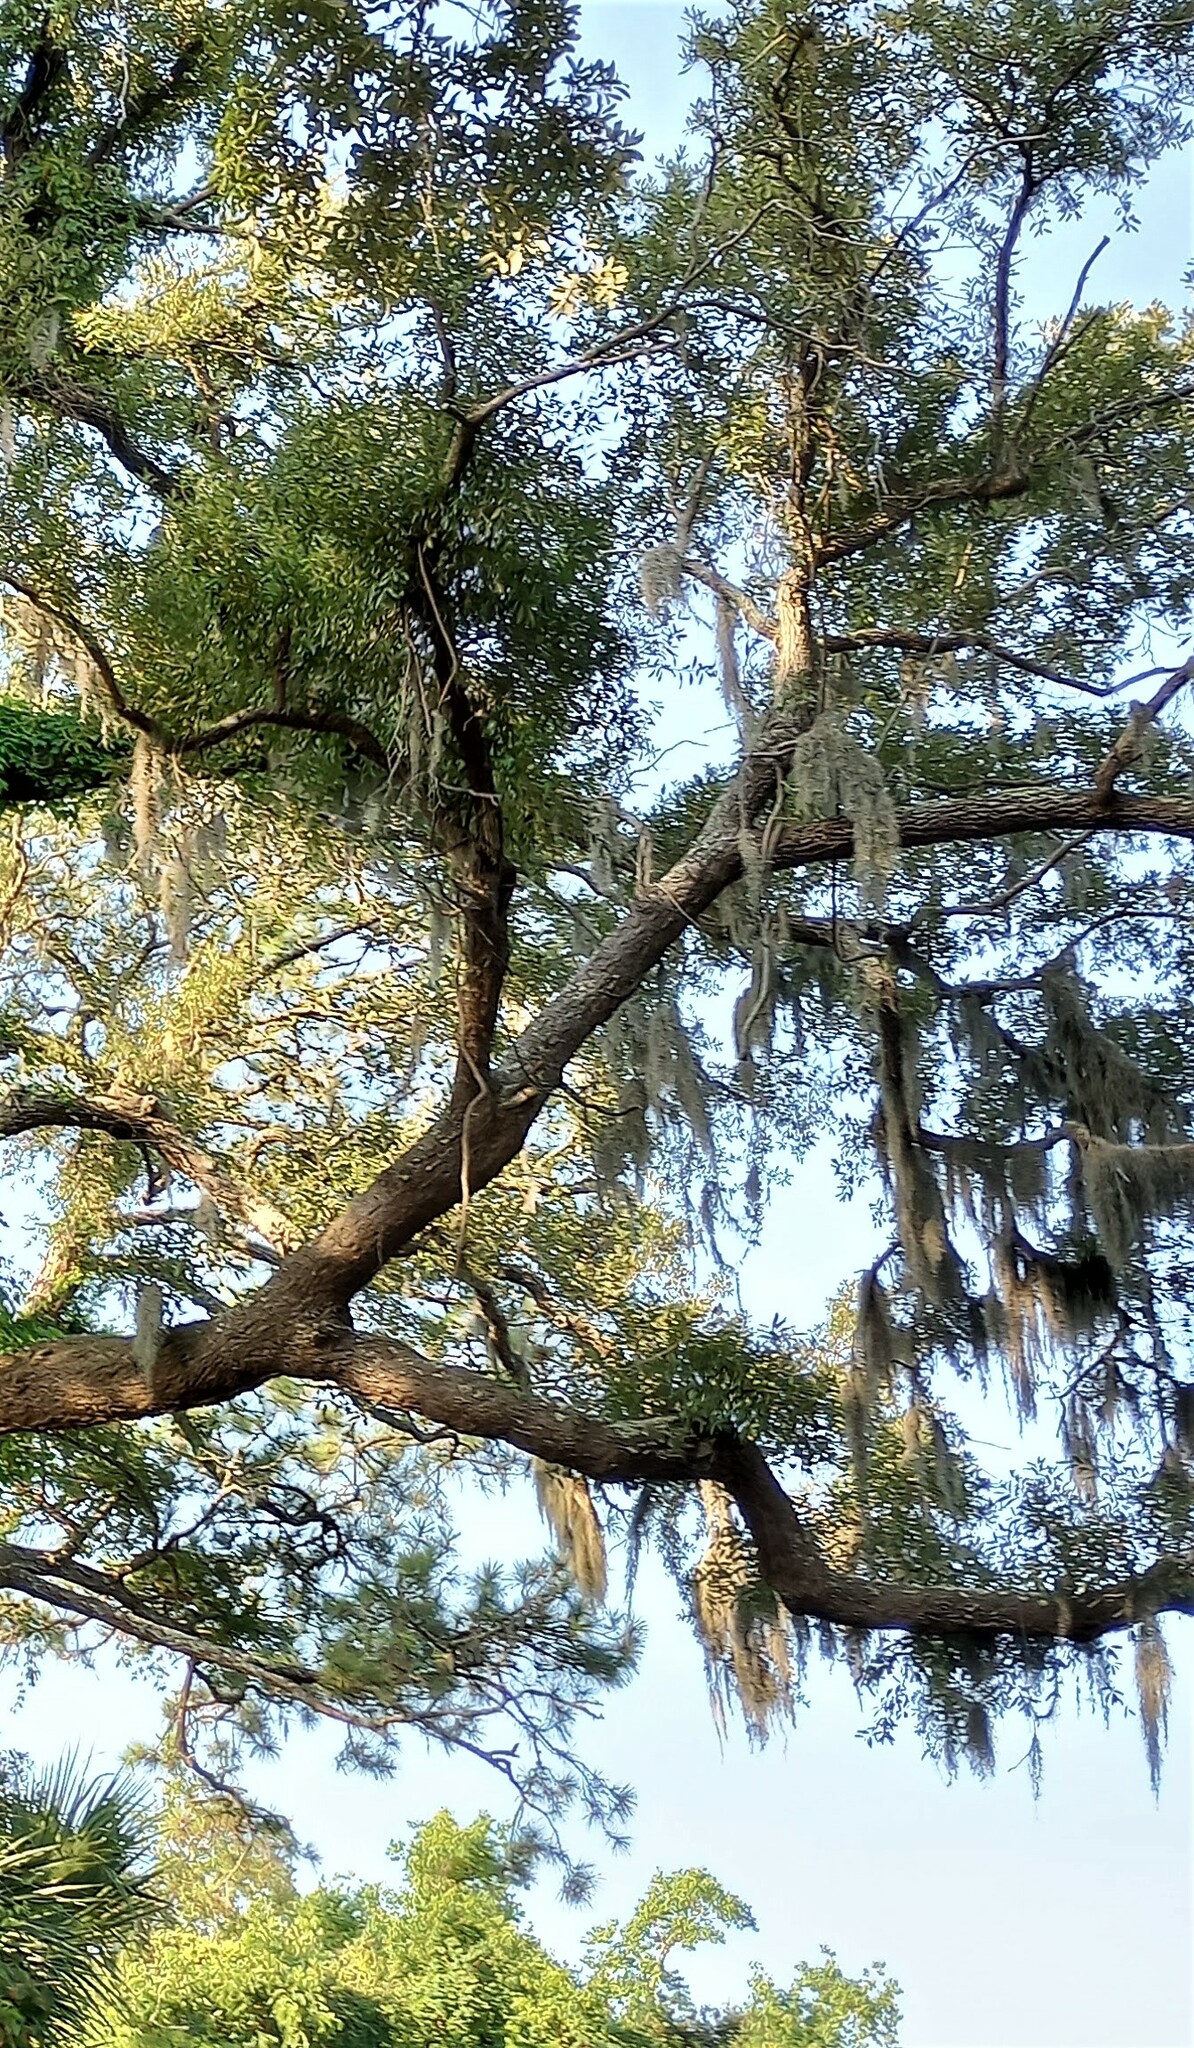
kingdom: Plantae
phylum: Tracheophyta
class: Liliopsida
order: Poales
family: Bromeliaceae
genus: Tillandsia
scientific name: Tillandsia usneoides
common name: Spanish moss
